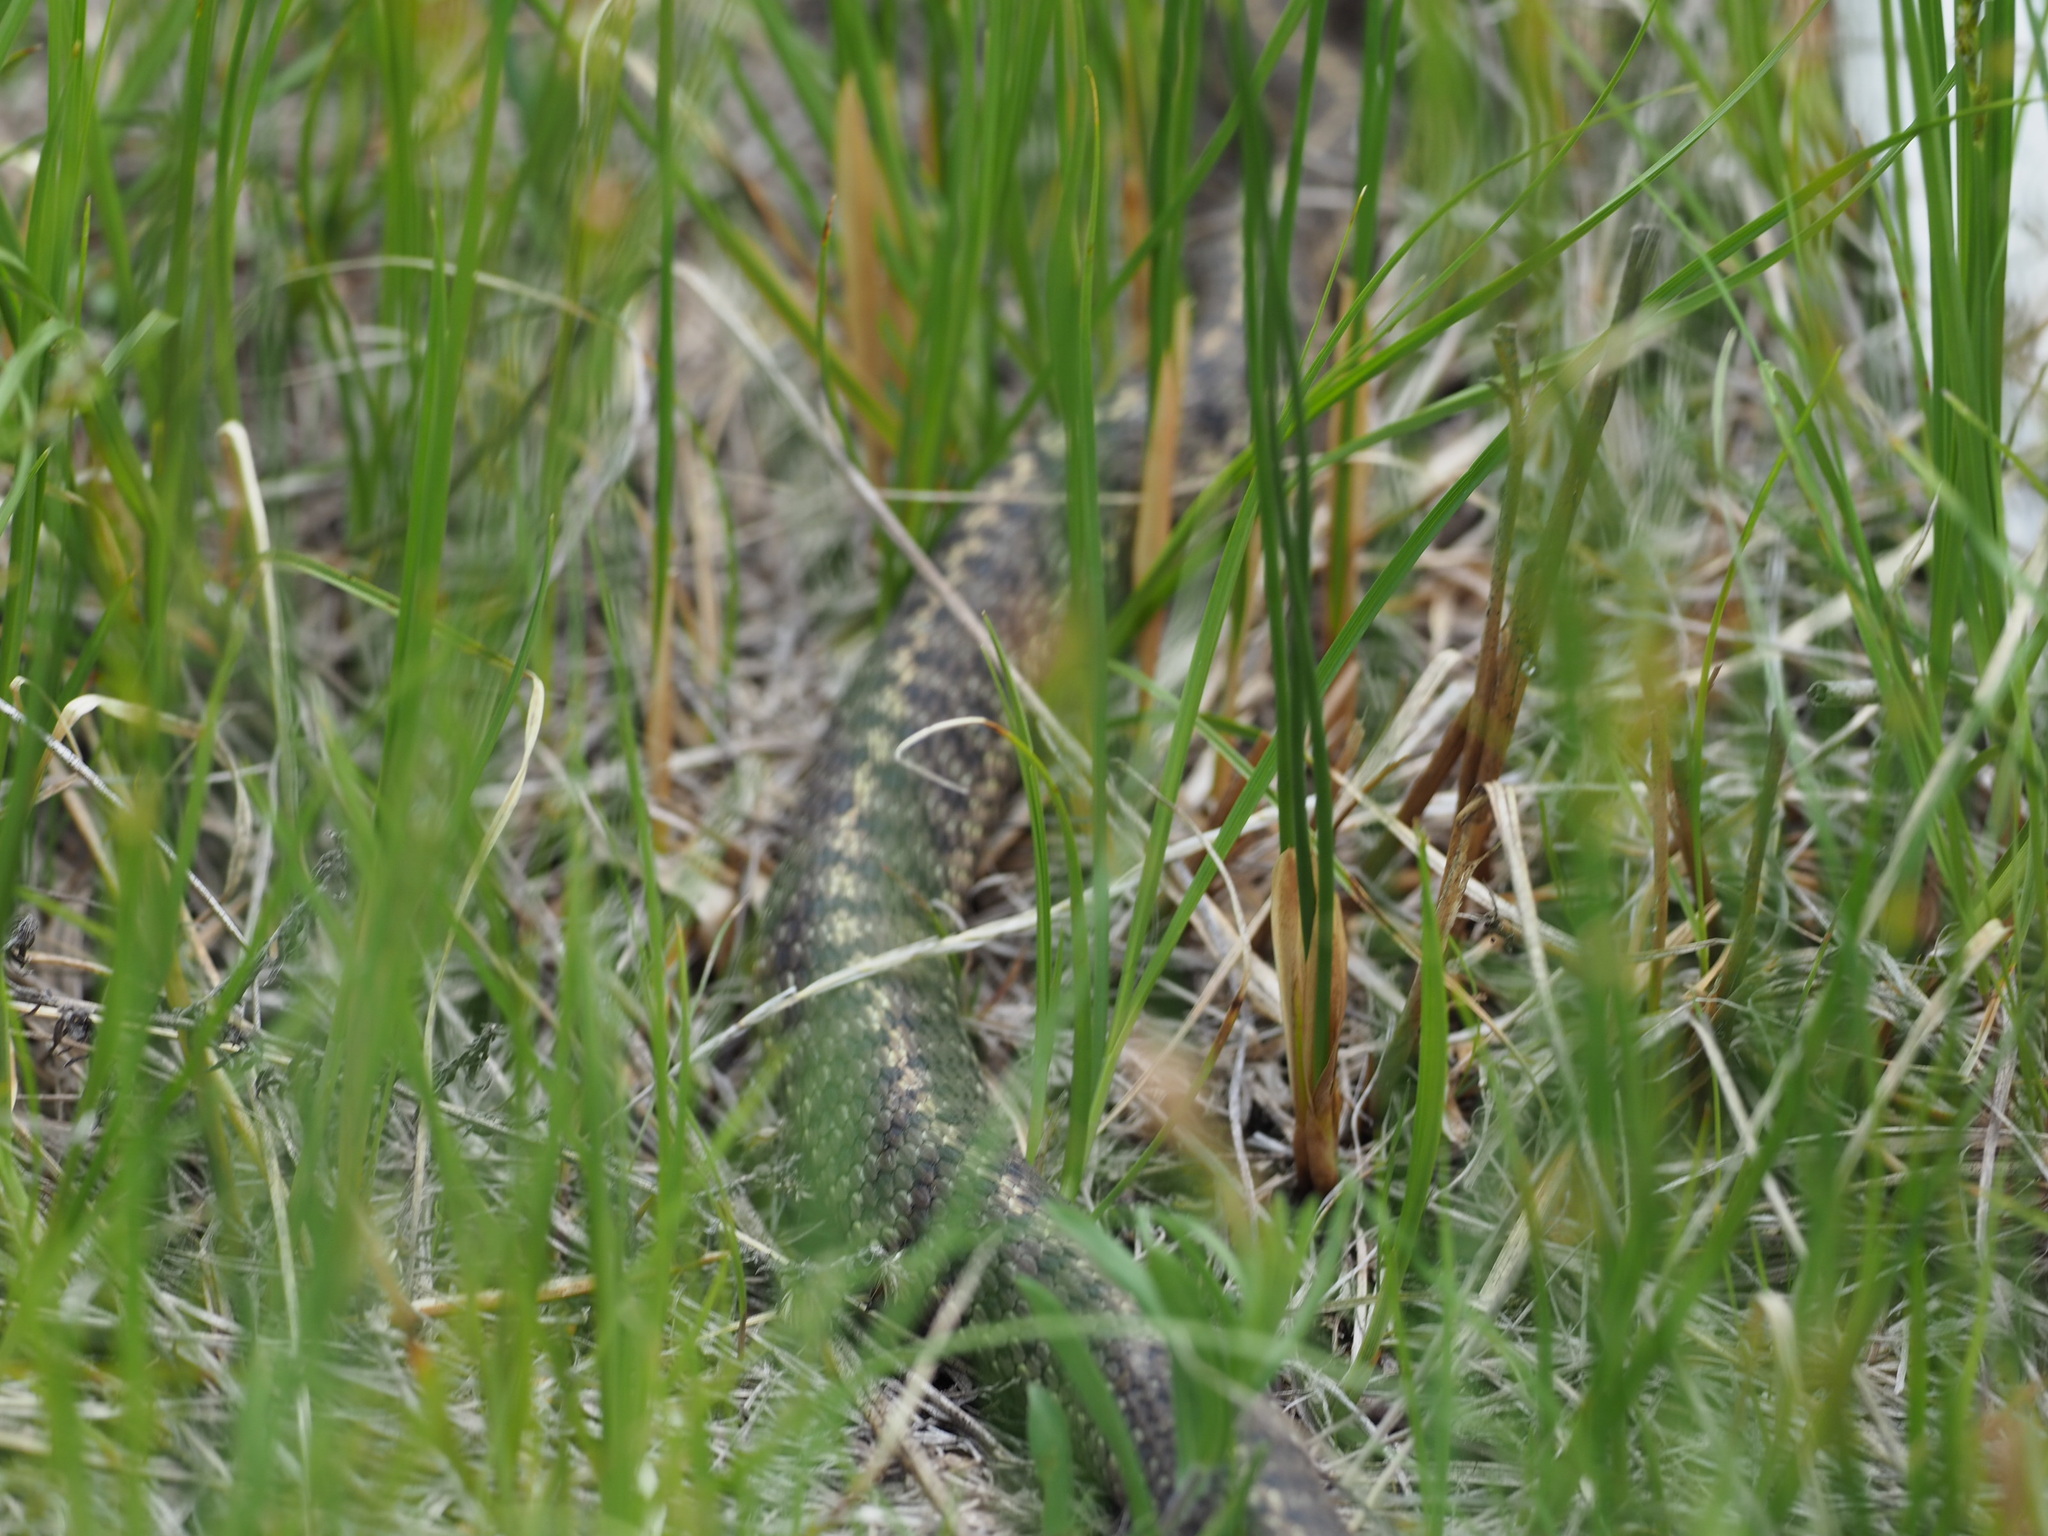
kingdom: Animalia
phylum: Chordata
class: Squamata
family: Colubridae
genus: Thamnophis
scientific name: Thamnophis elegans
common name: Western terrestrial garter snake
